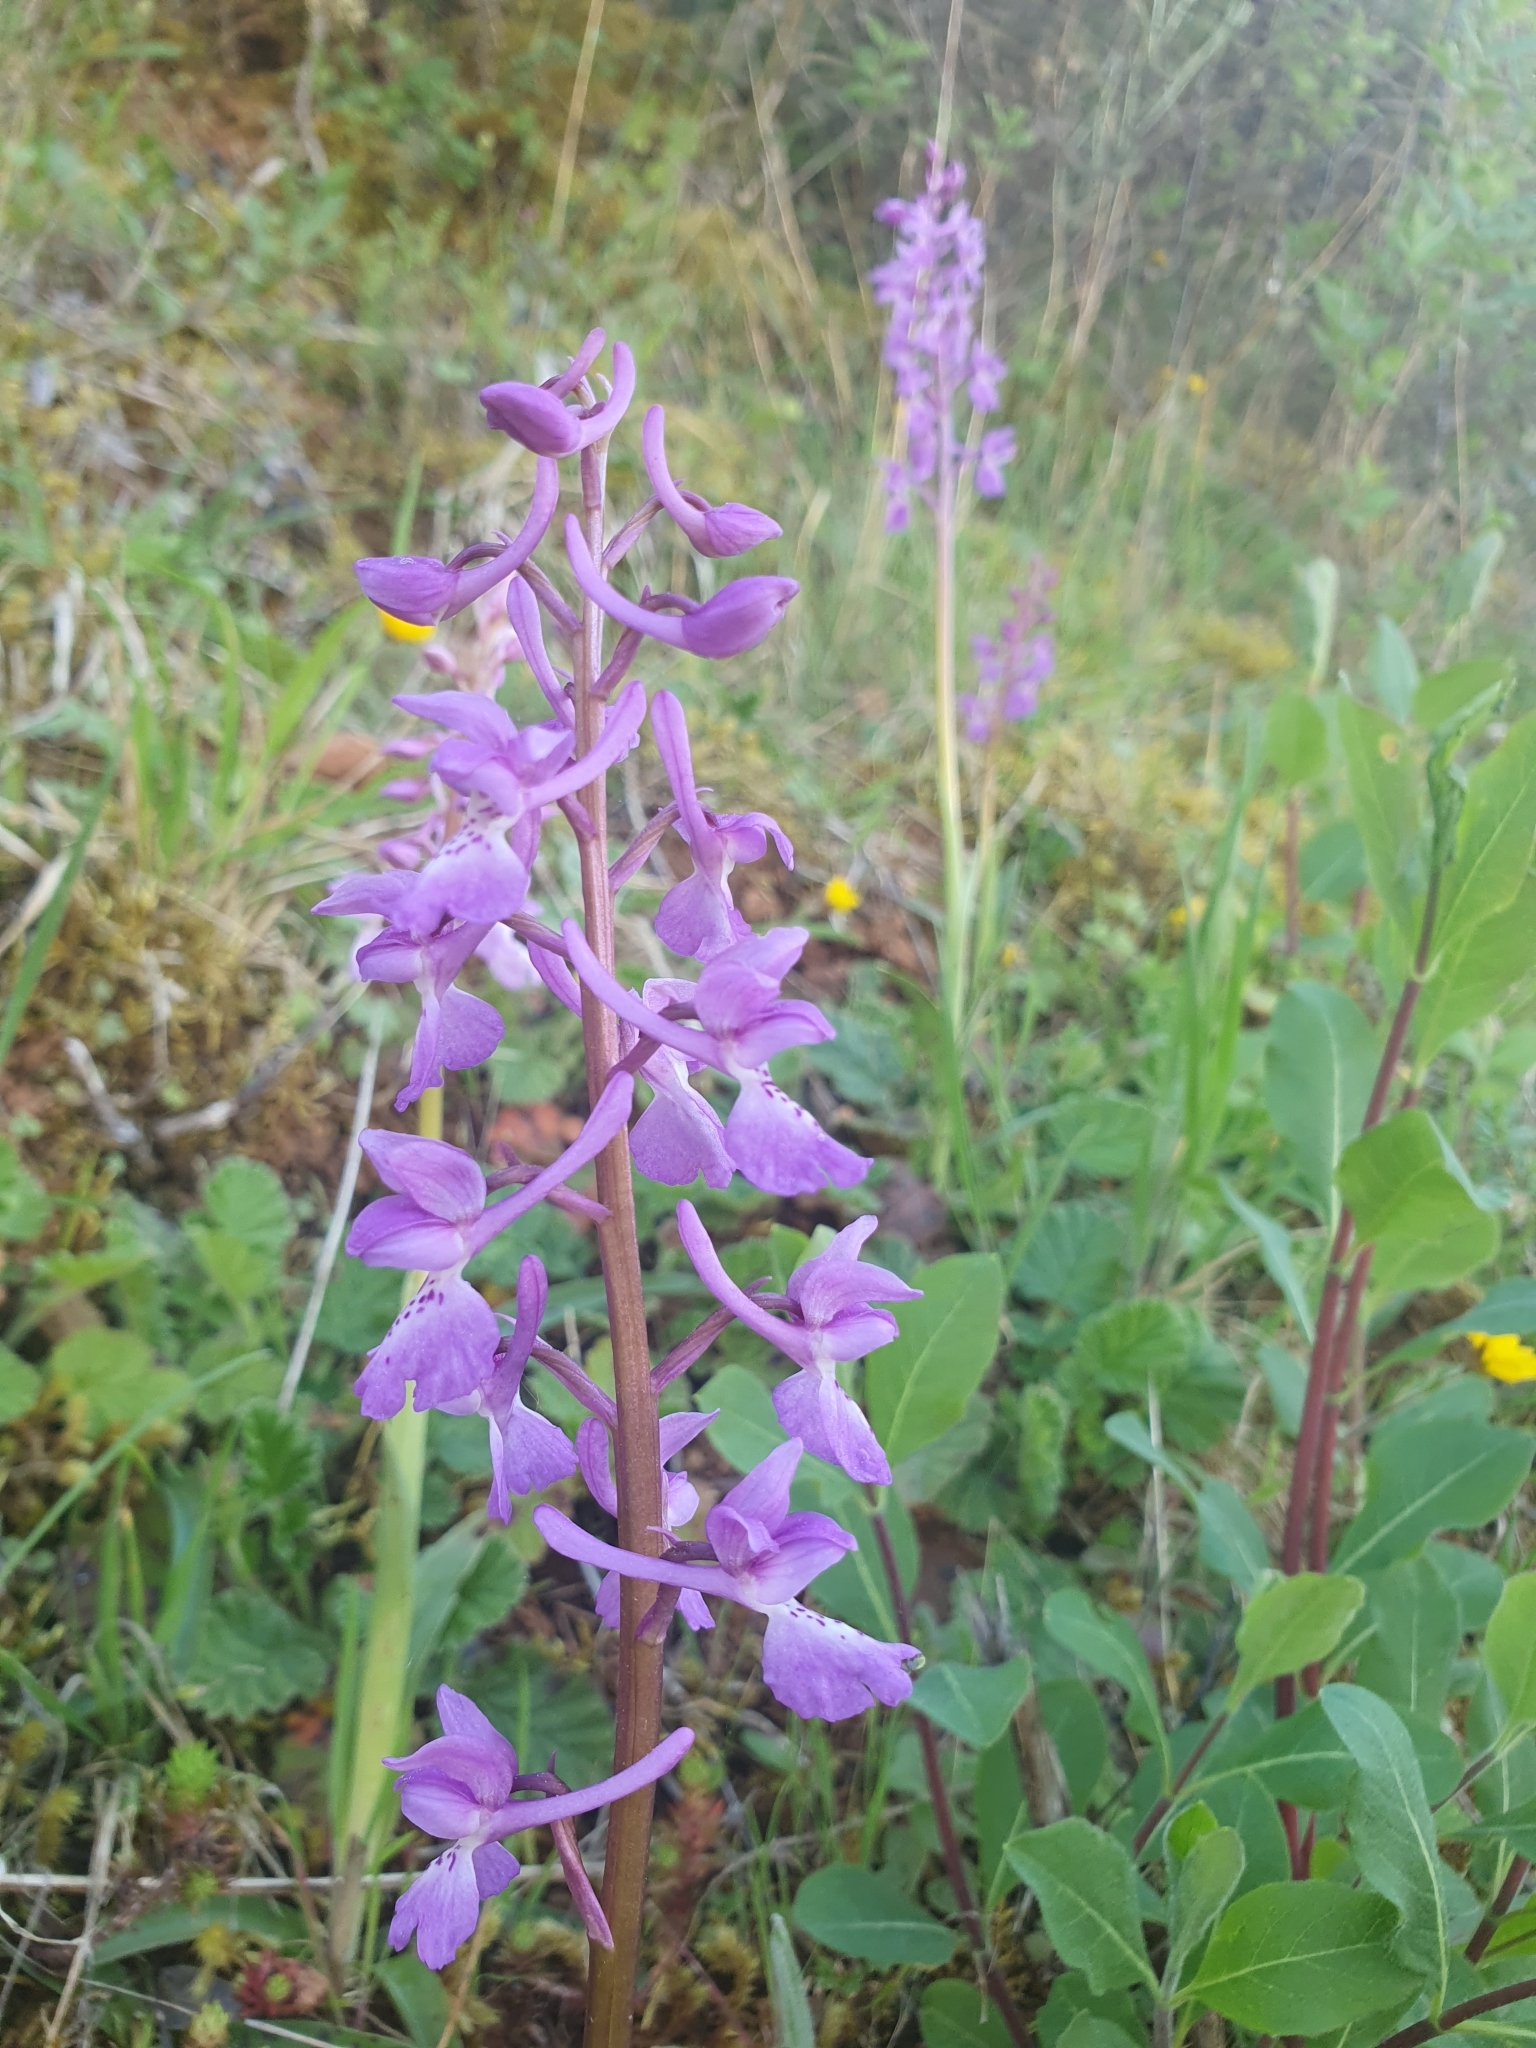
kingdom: Plantae
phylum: Tracheophyta
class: Liliopsida
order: Asparagales
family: Orchidaceae
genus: Orchis
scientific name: Orchis mascula
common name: Early-purple orchid
